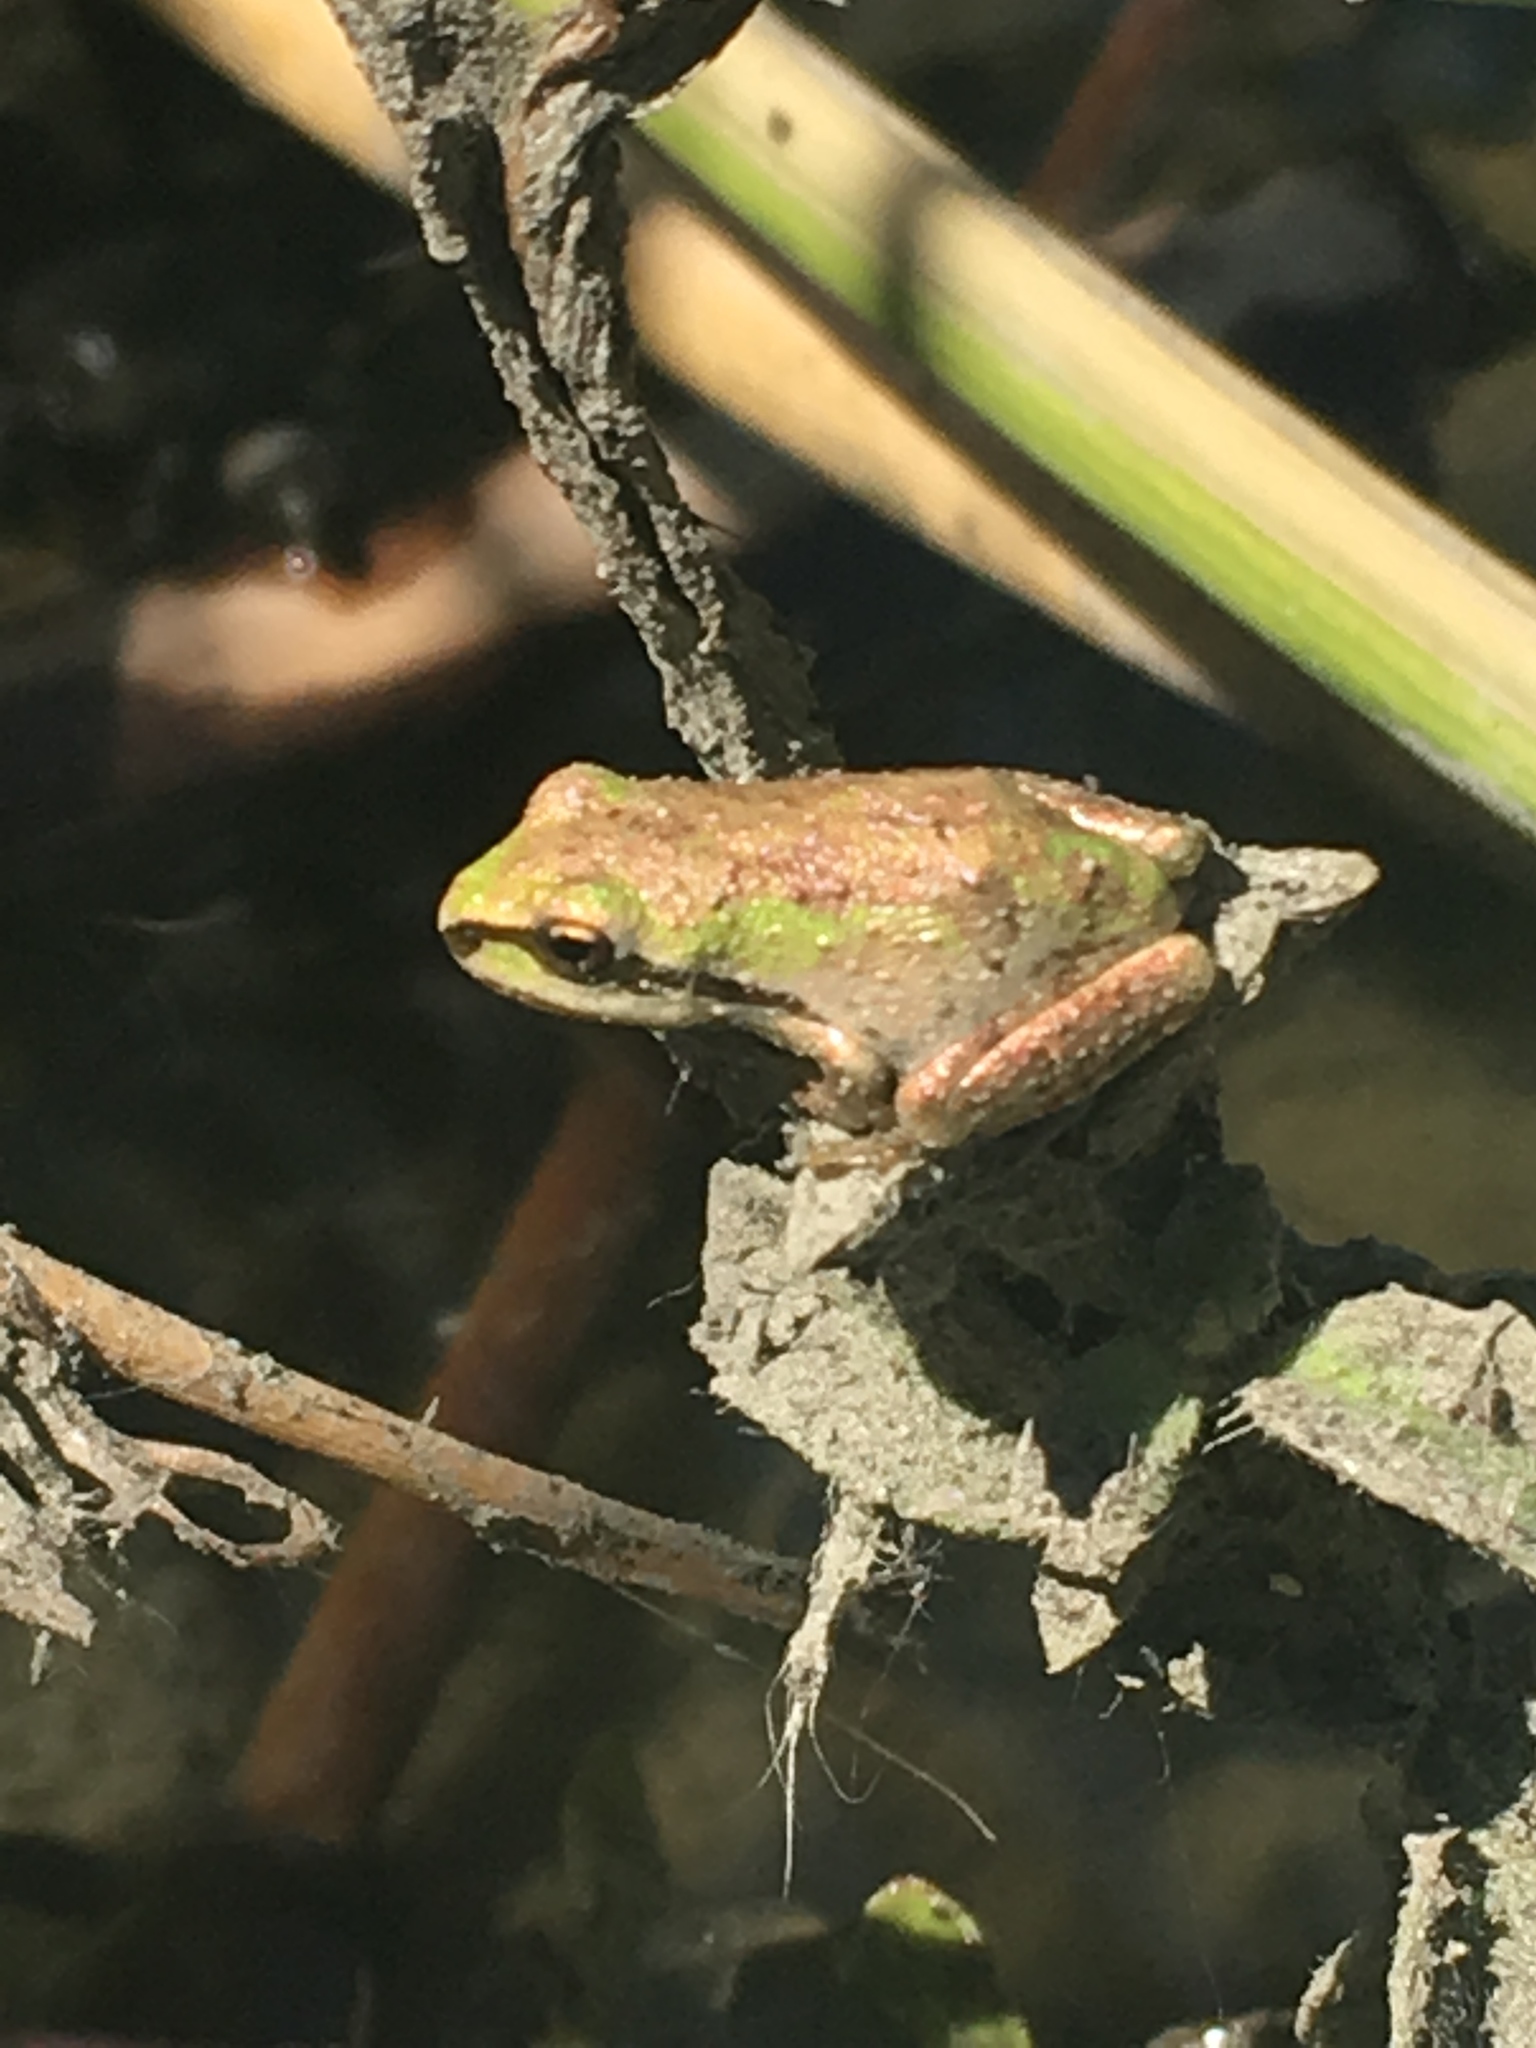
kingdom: Animalia
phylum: Chordata
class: Amphibia
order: Anura
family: Hylidae
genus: Pseudacris
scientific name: Pseudacris regilla
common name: Pacific chorus frog
